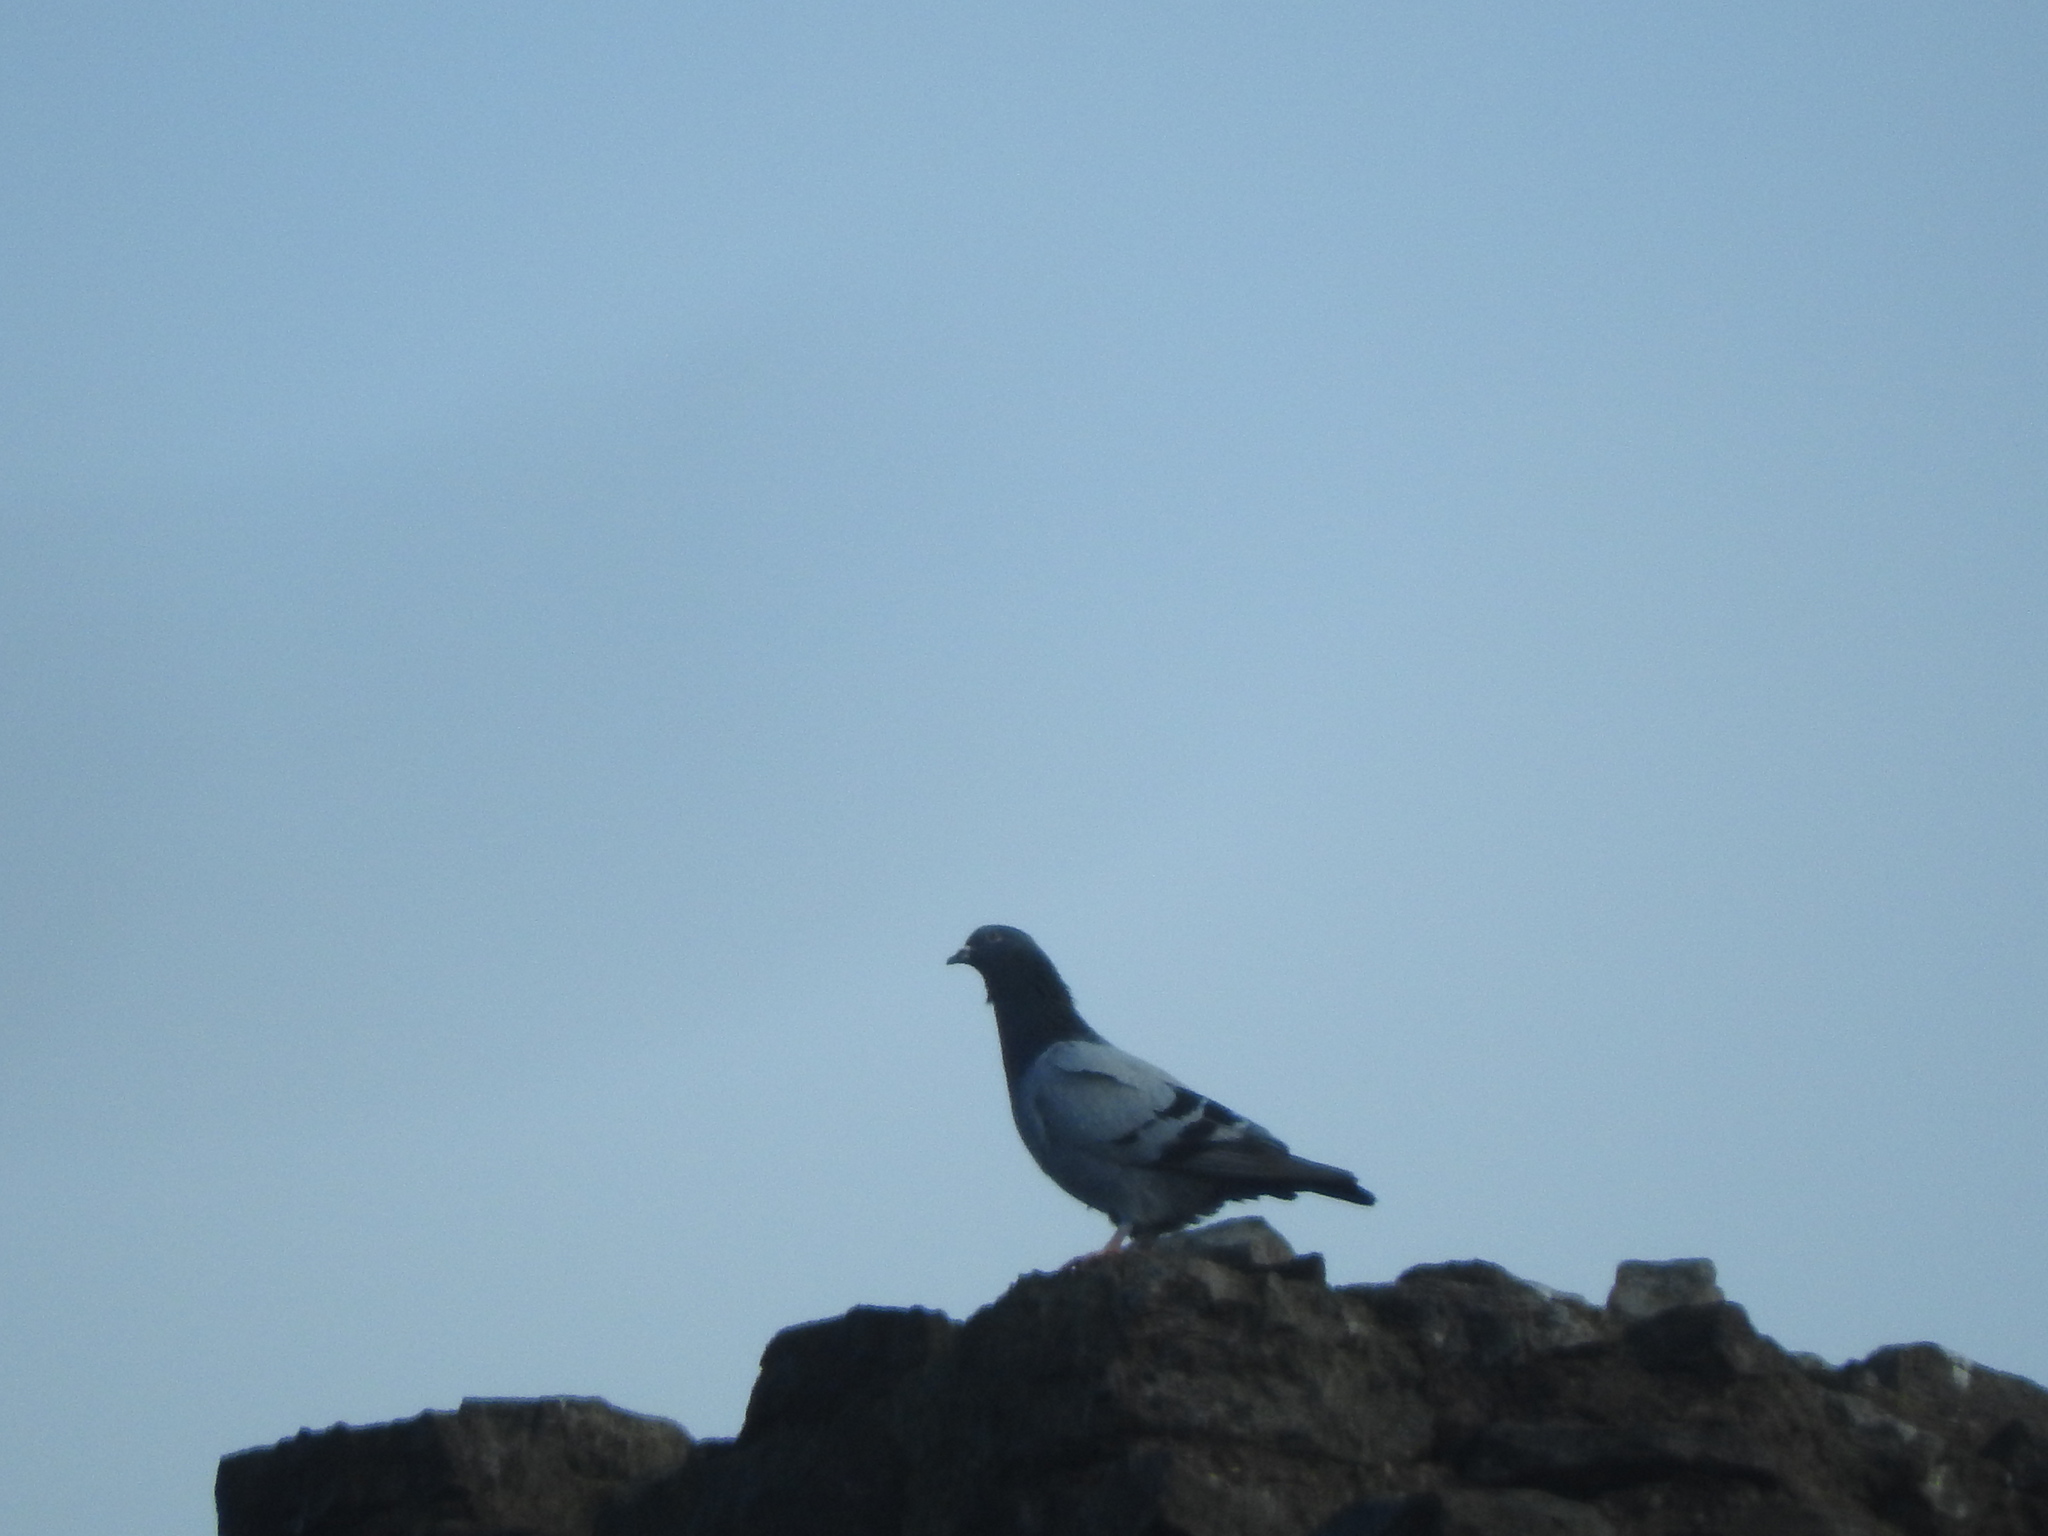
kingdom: Animalia
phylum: Chordata
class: Aves
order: Columbiformes
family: Columbidae
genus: Columba
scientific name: Columba livia
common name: Rock pigeon
